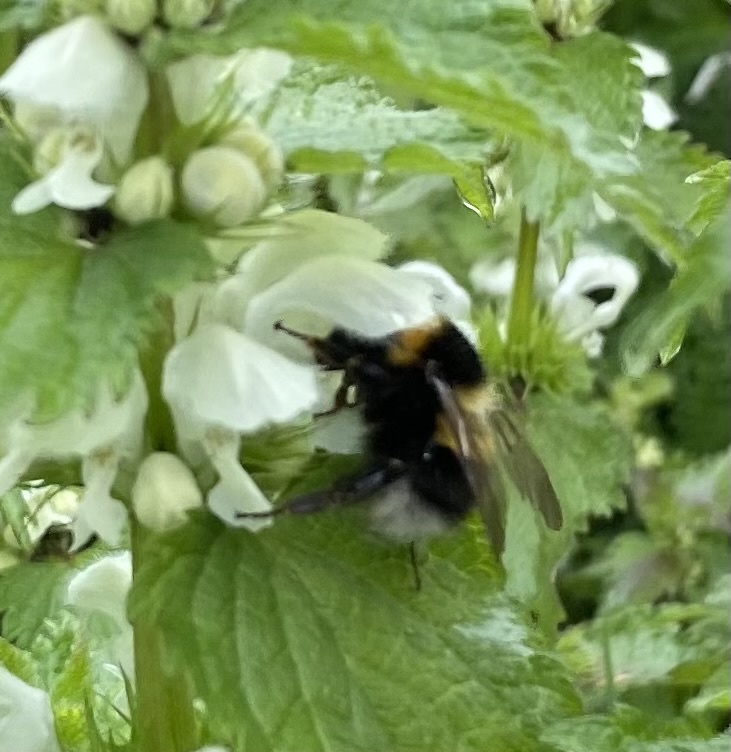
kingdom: Animalia
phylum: Arthropoda
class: Insecta
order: Hymenoptera
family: Apidae
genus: Bombus
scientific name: Bombus hortorum
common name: Garden bumblebee
